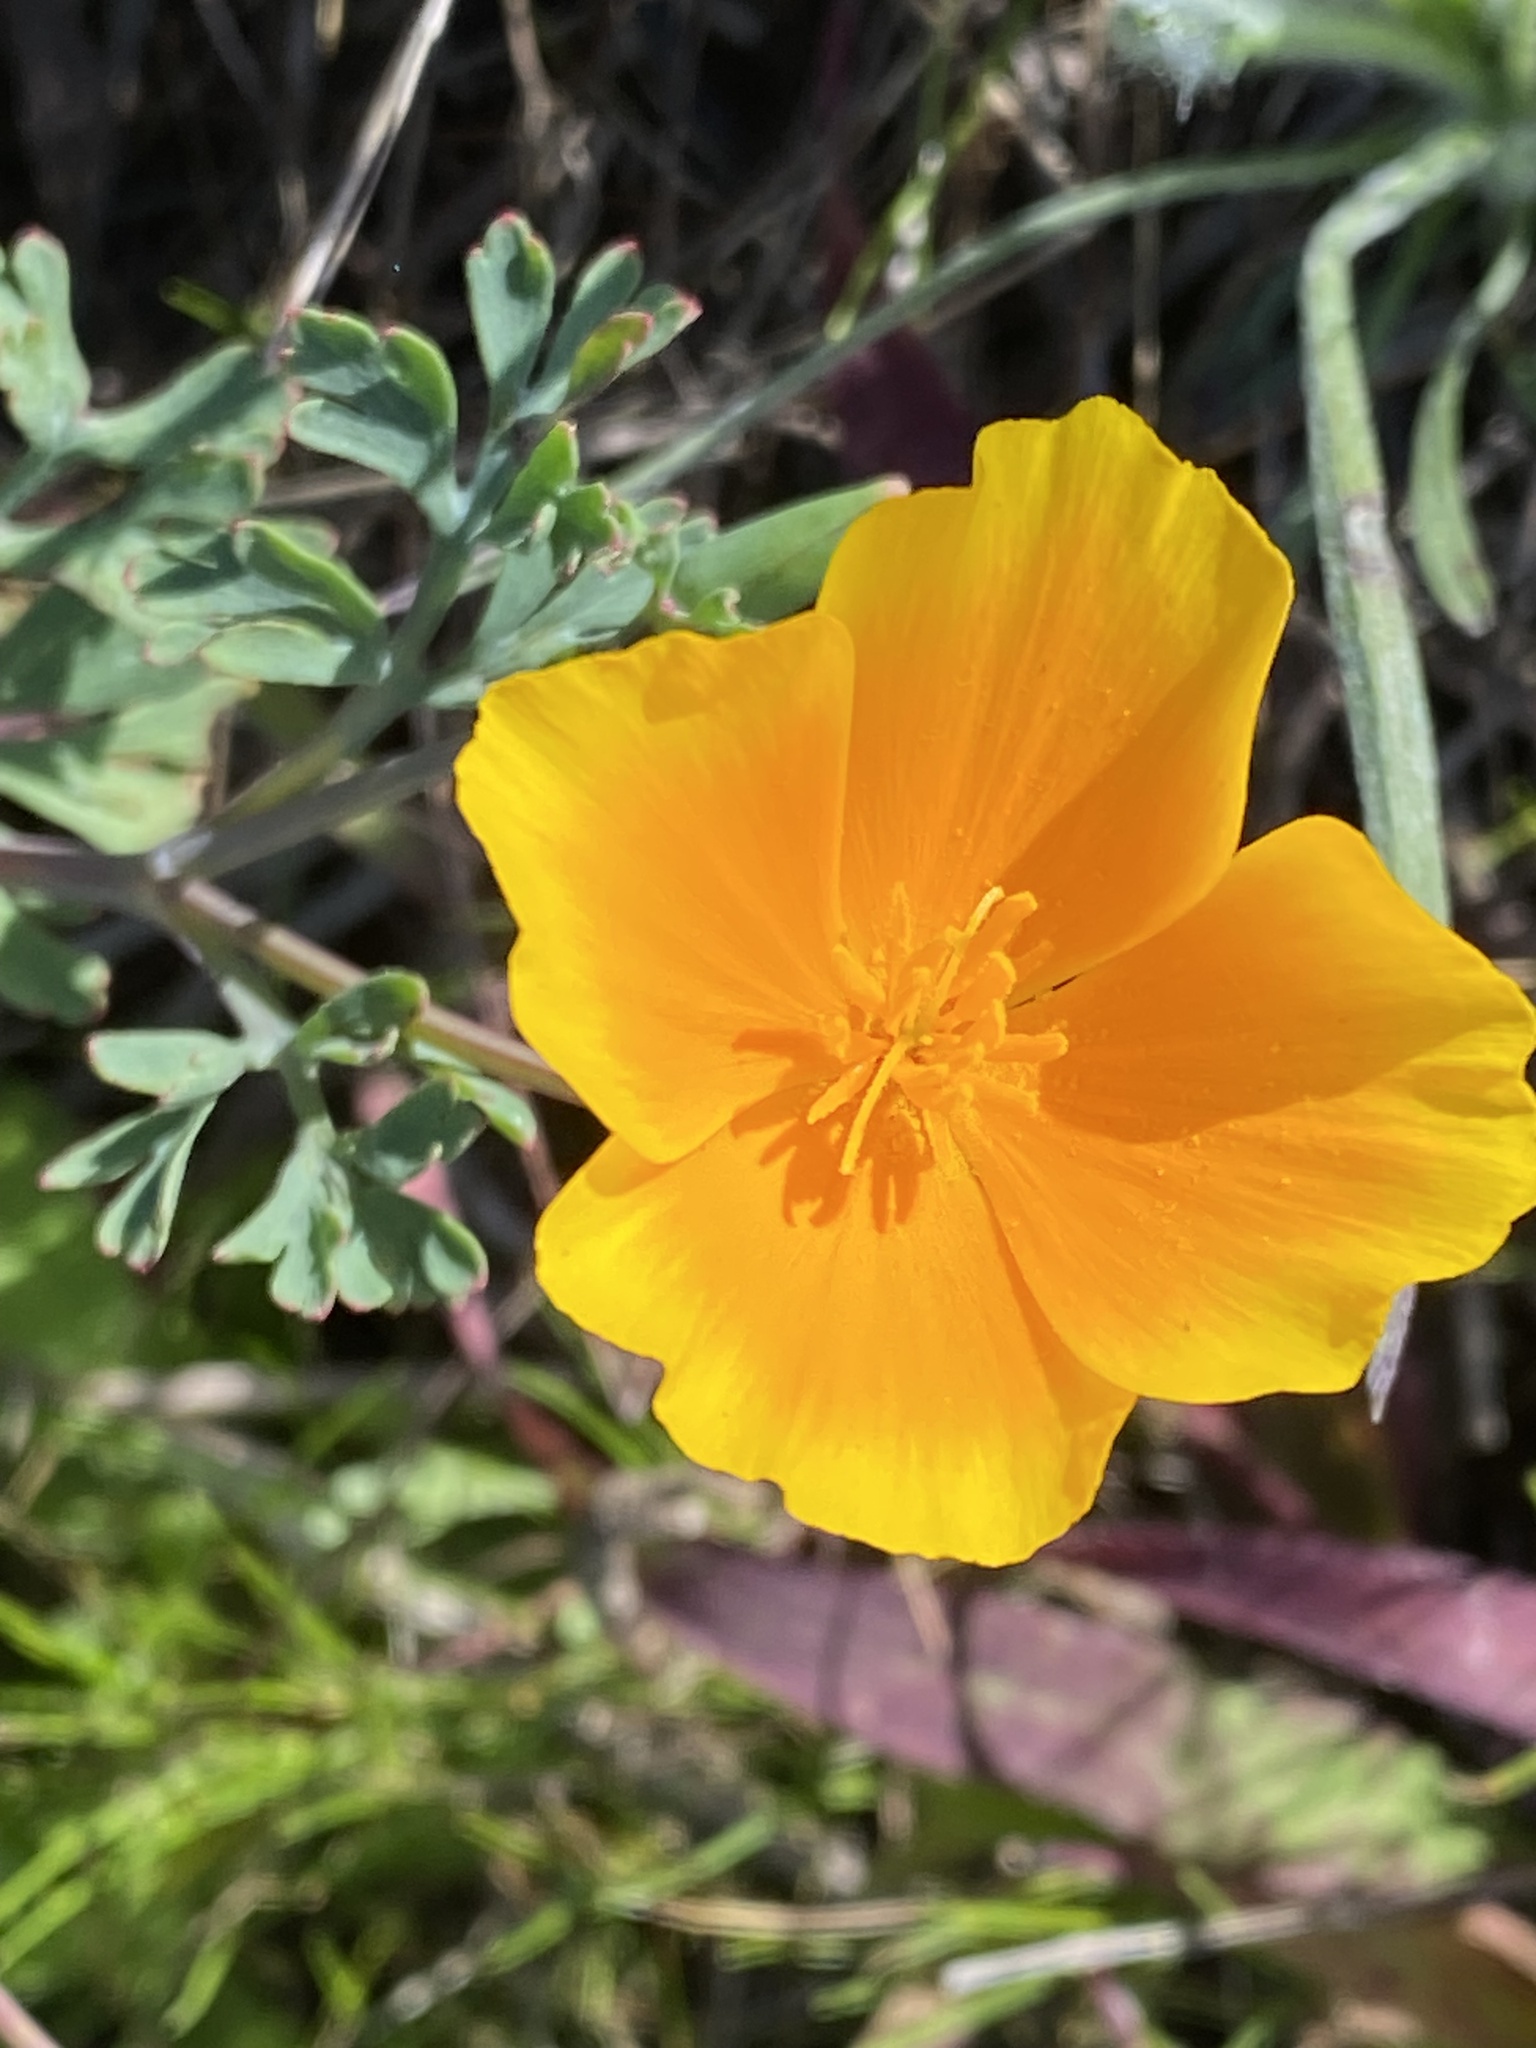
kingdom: Plantae
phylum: Tracheophyta
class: Magnoliopsida
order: Ranunculales
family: Papaveraceae
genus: Eschscholzia
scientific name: Eschscholzia californica
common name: California poppy
